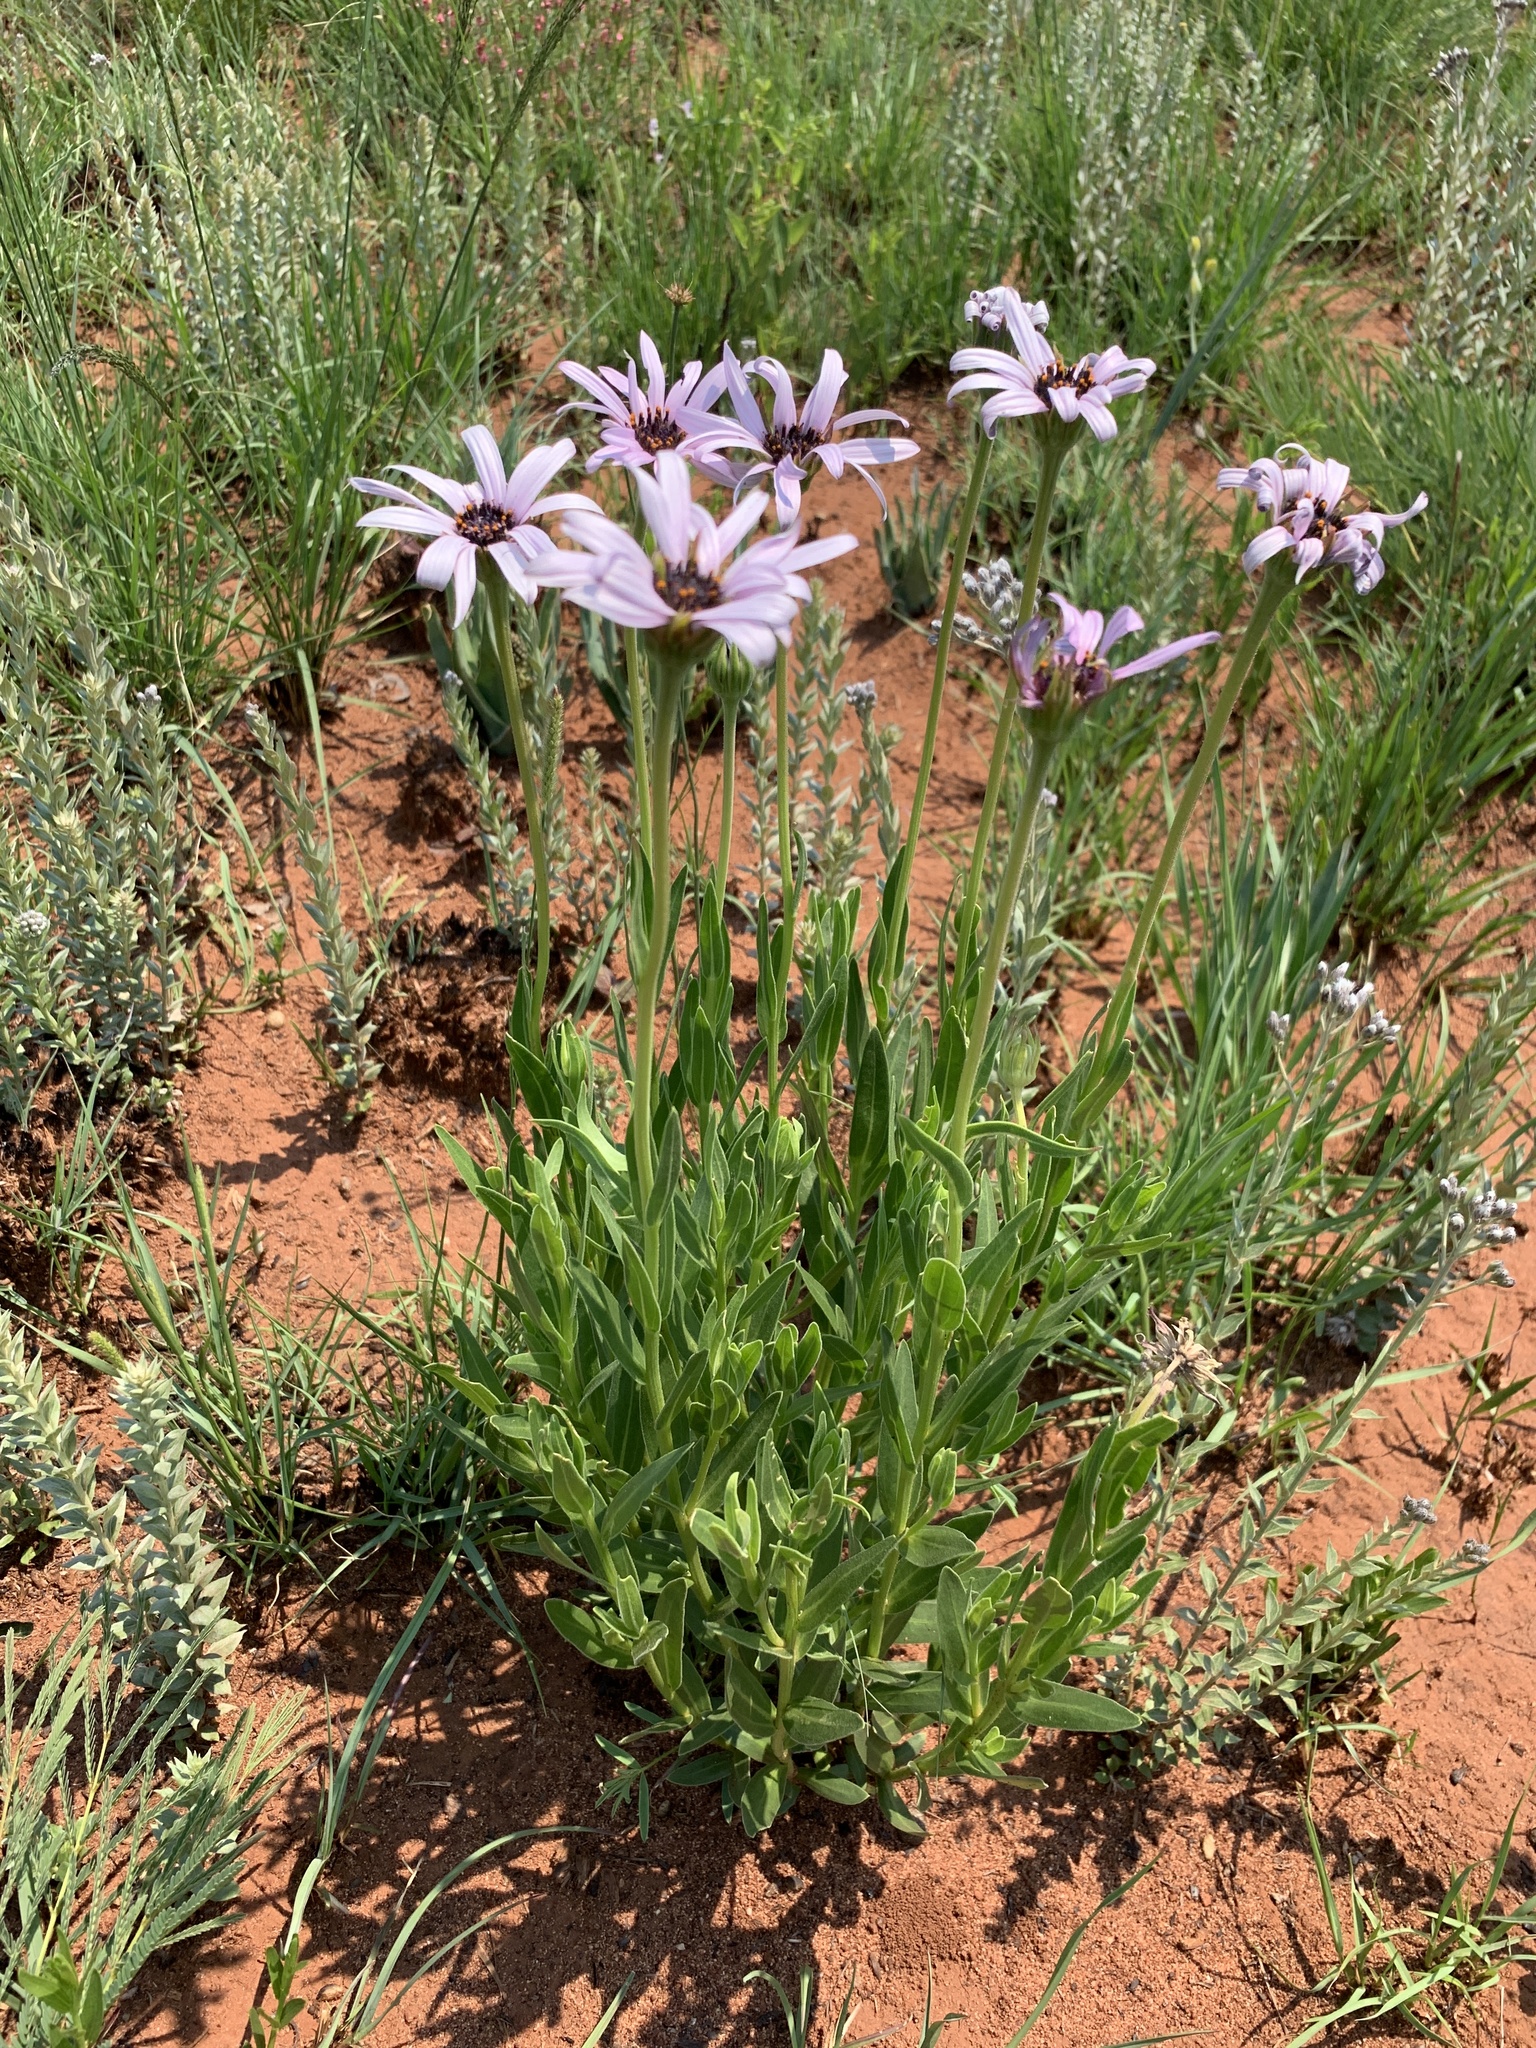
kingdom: Plantae
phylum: Tracheophyta
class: Magnoliopsida
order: Asterales
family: Asteraceae
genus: Dimorphotheca
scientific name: Dimorphotheca spectabilis
